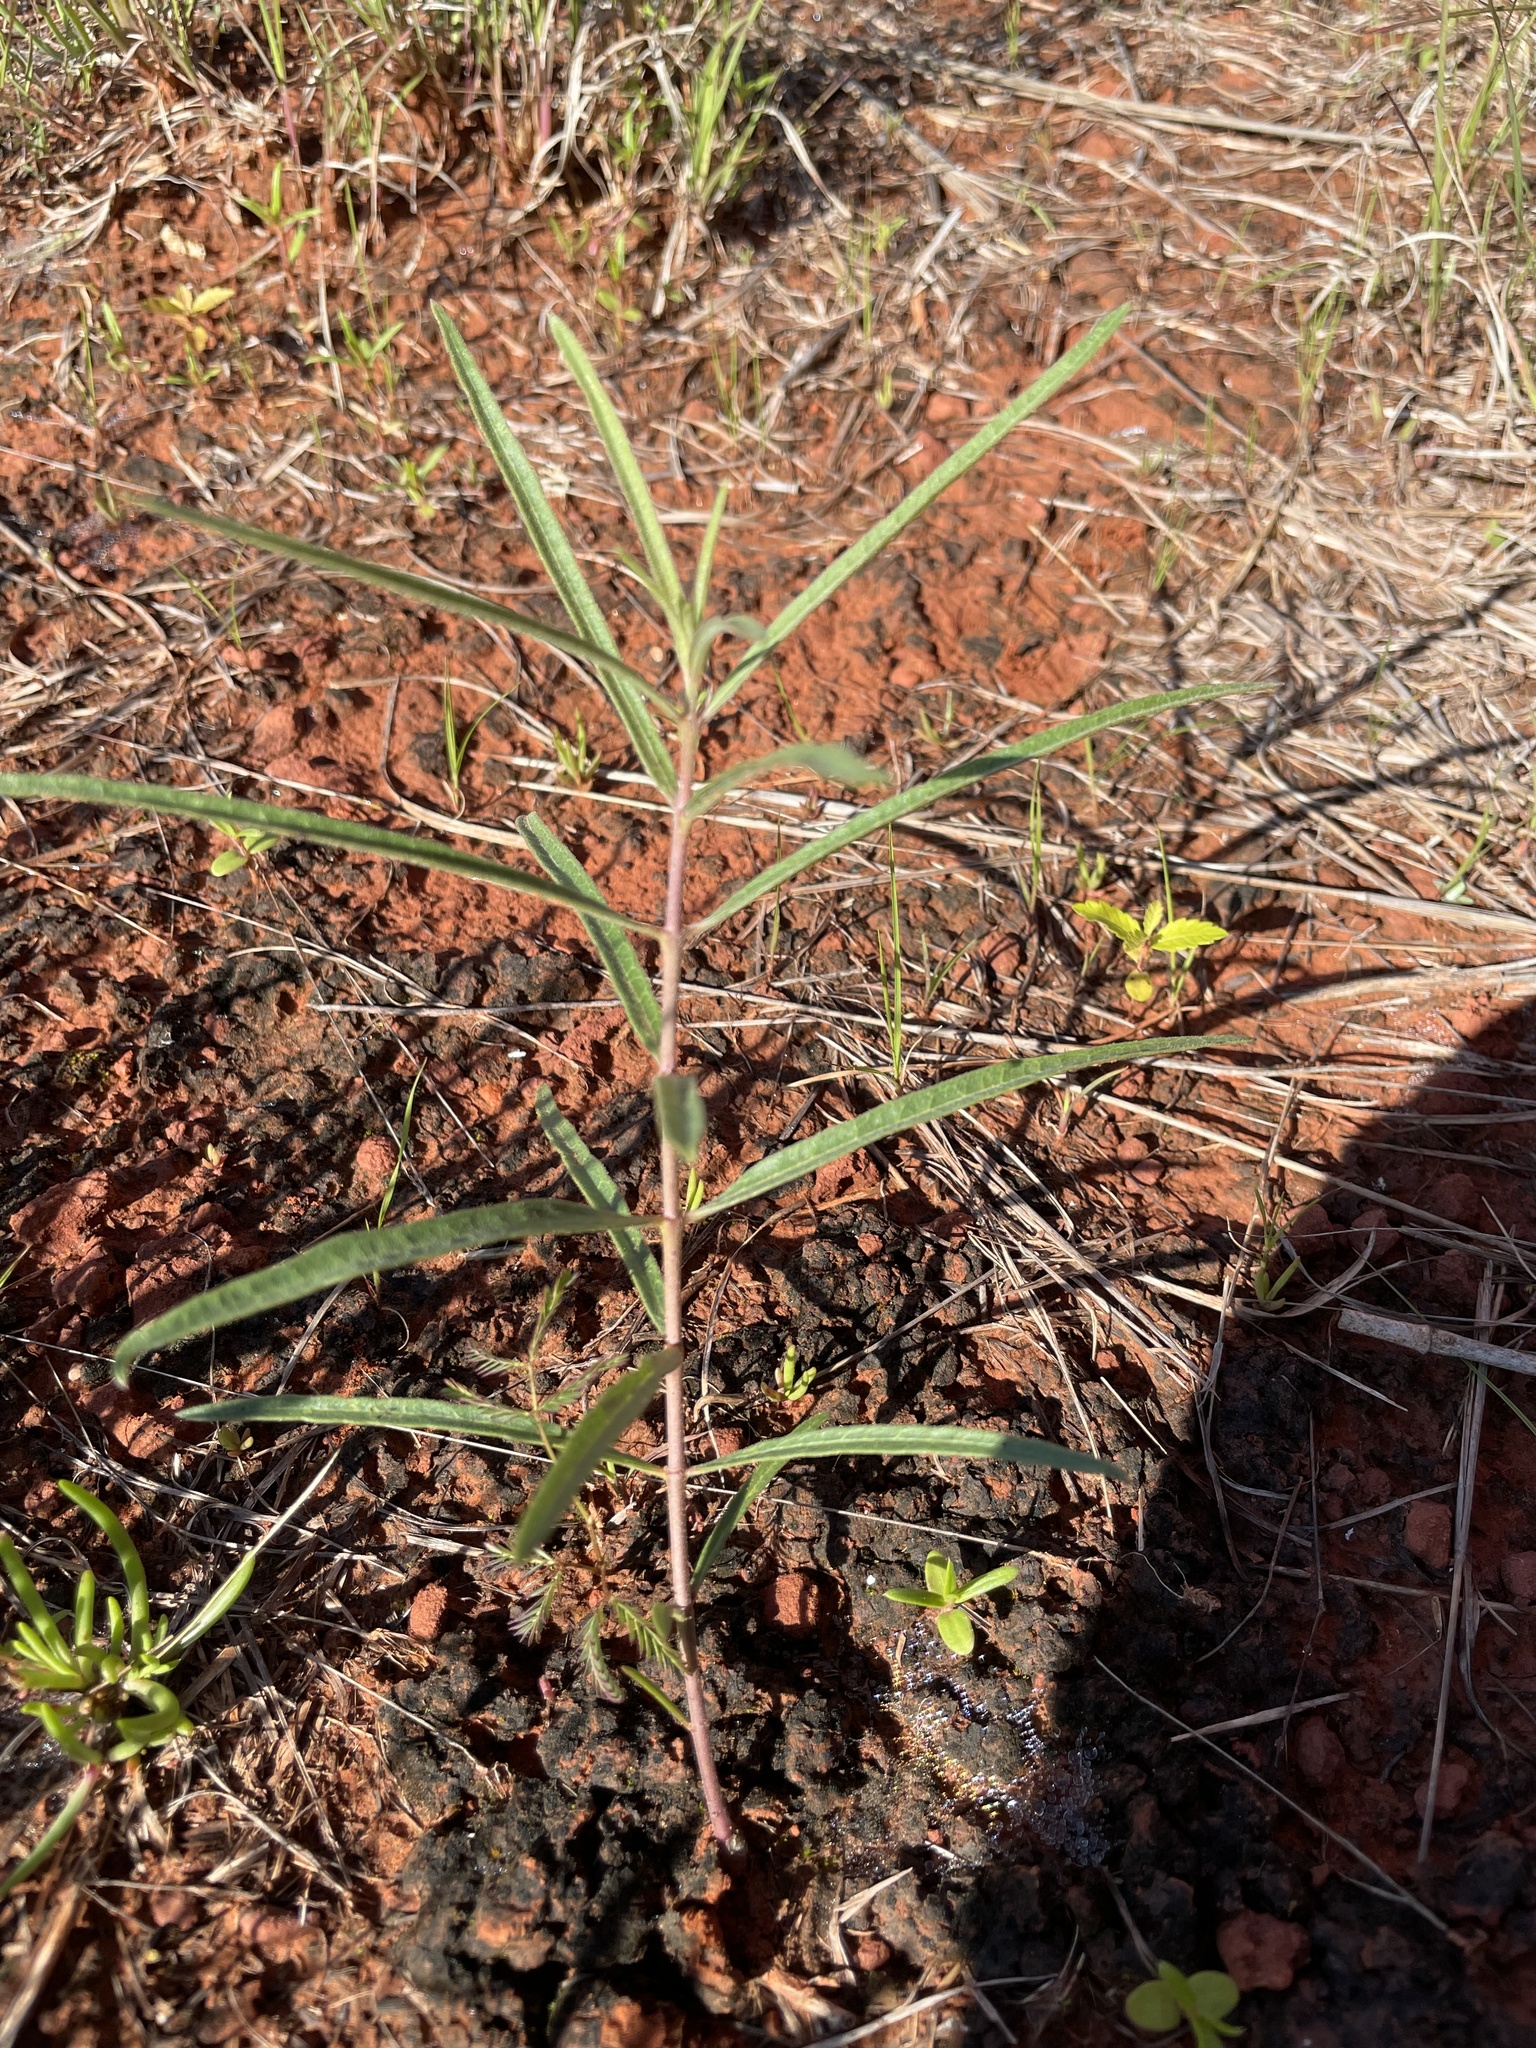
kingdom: Plantae
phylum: Tracheophyta
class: Magnoliopsida
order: Gentianales
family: Apocynaceae
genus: Asclepias
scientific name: Asclepias viridiflora
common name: Green comet milkweed
